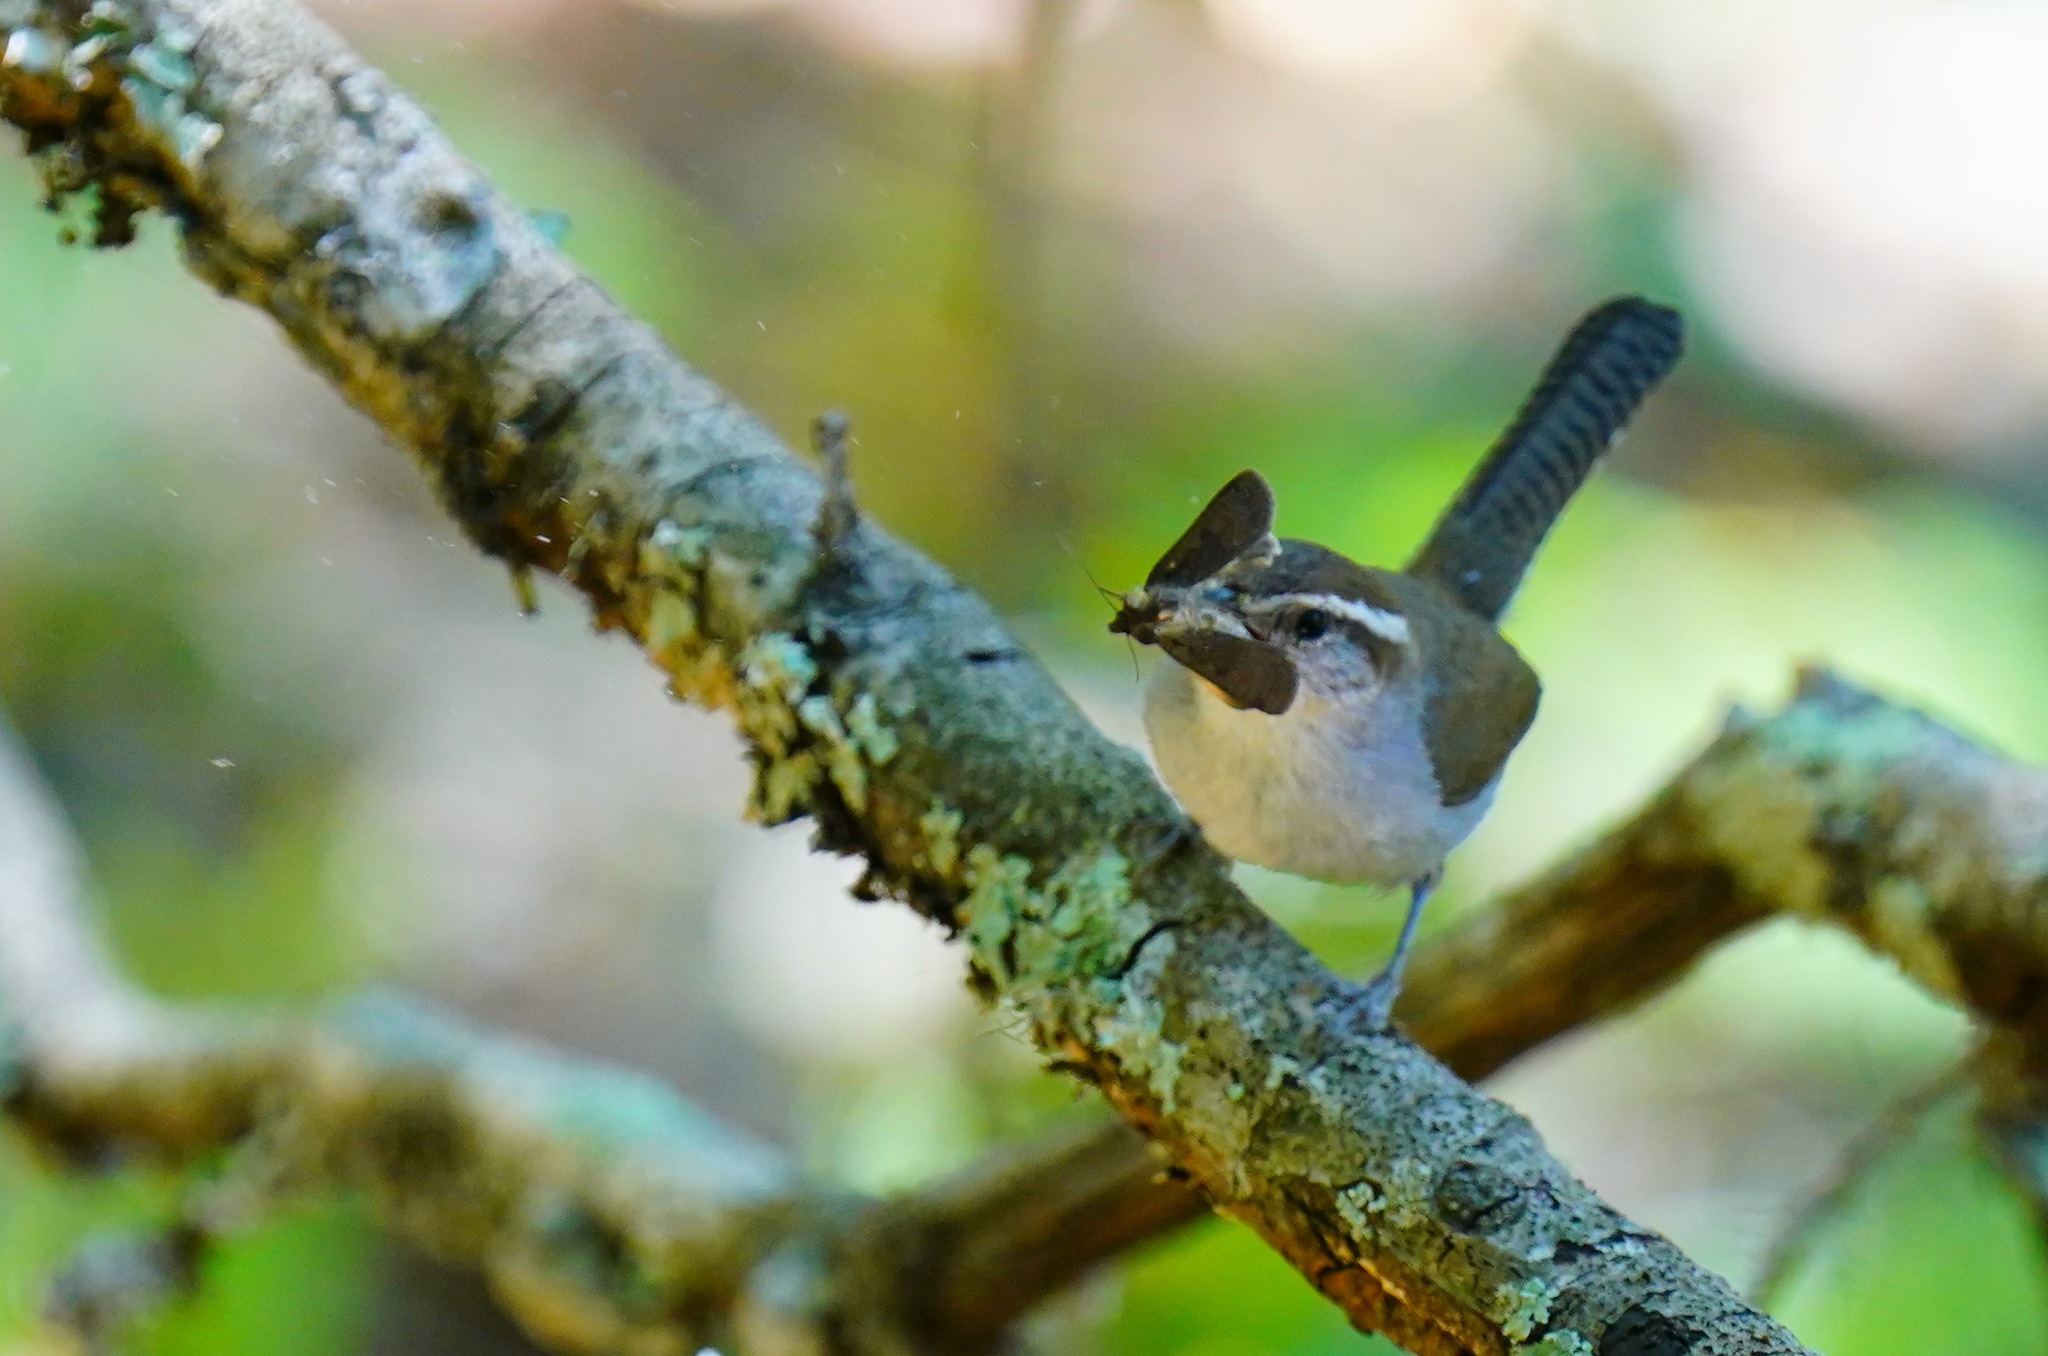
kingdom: Animalia
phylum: Chordata
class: Aves
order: Passeriformes
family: Troglodytidae
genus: Thryomanes
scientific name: Thryomanes bewickii
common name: Bewick's wren
